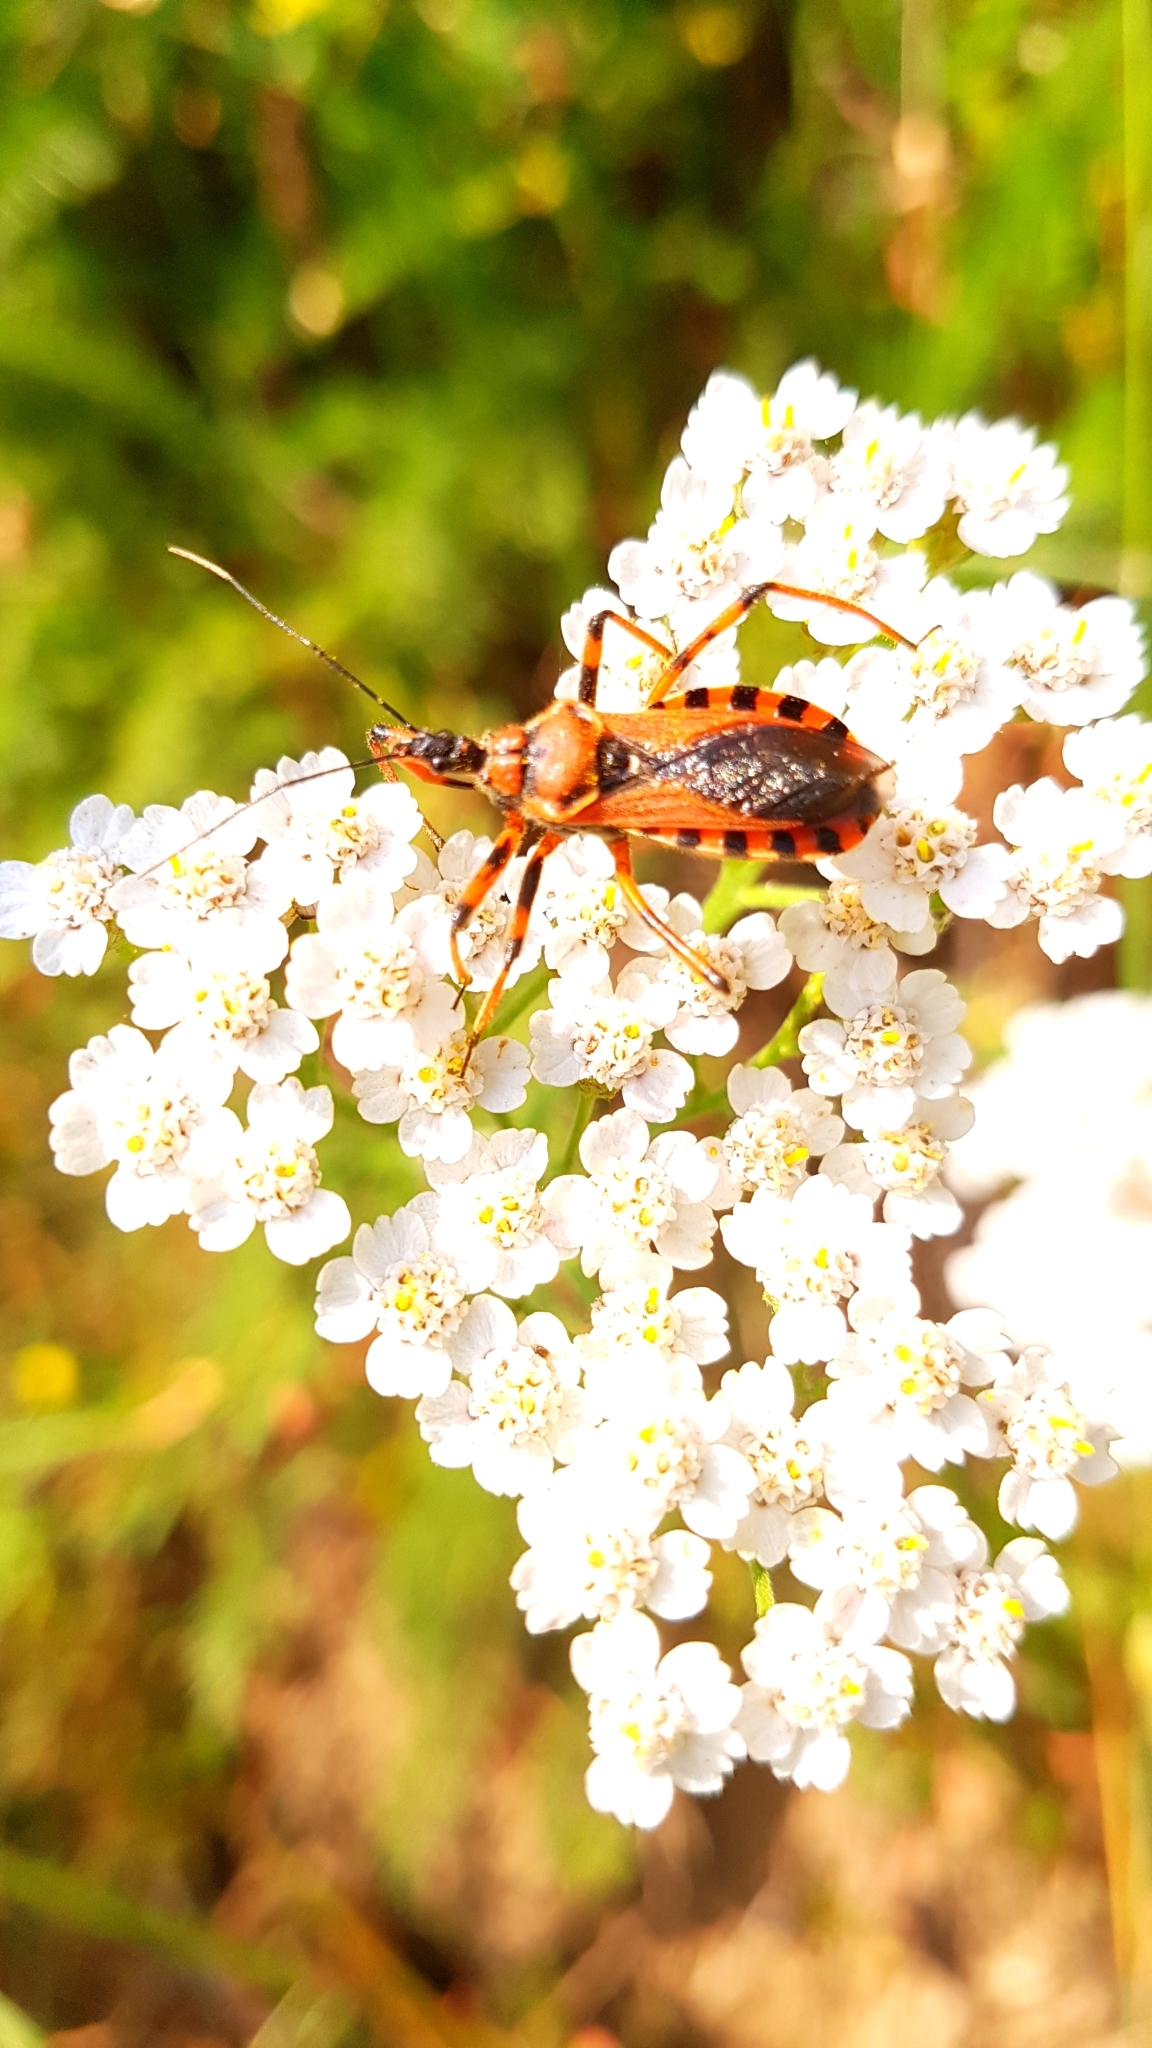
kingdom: Animalia
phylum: Arthropoda
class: Insecta
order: Hemiptera
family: Reduviidae
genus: Rhynocoris
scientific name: Rhynocoris iracundus
